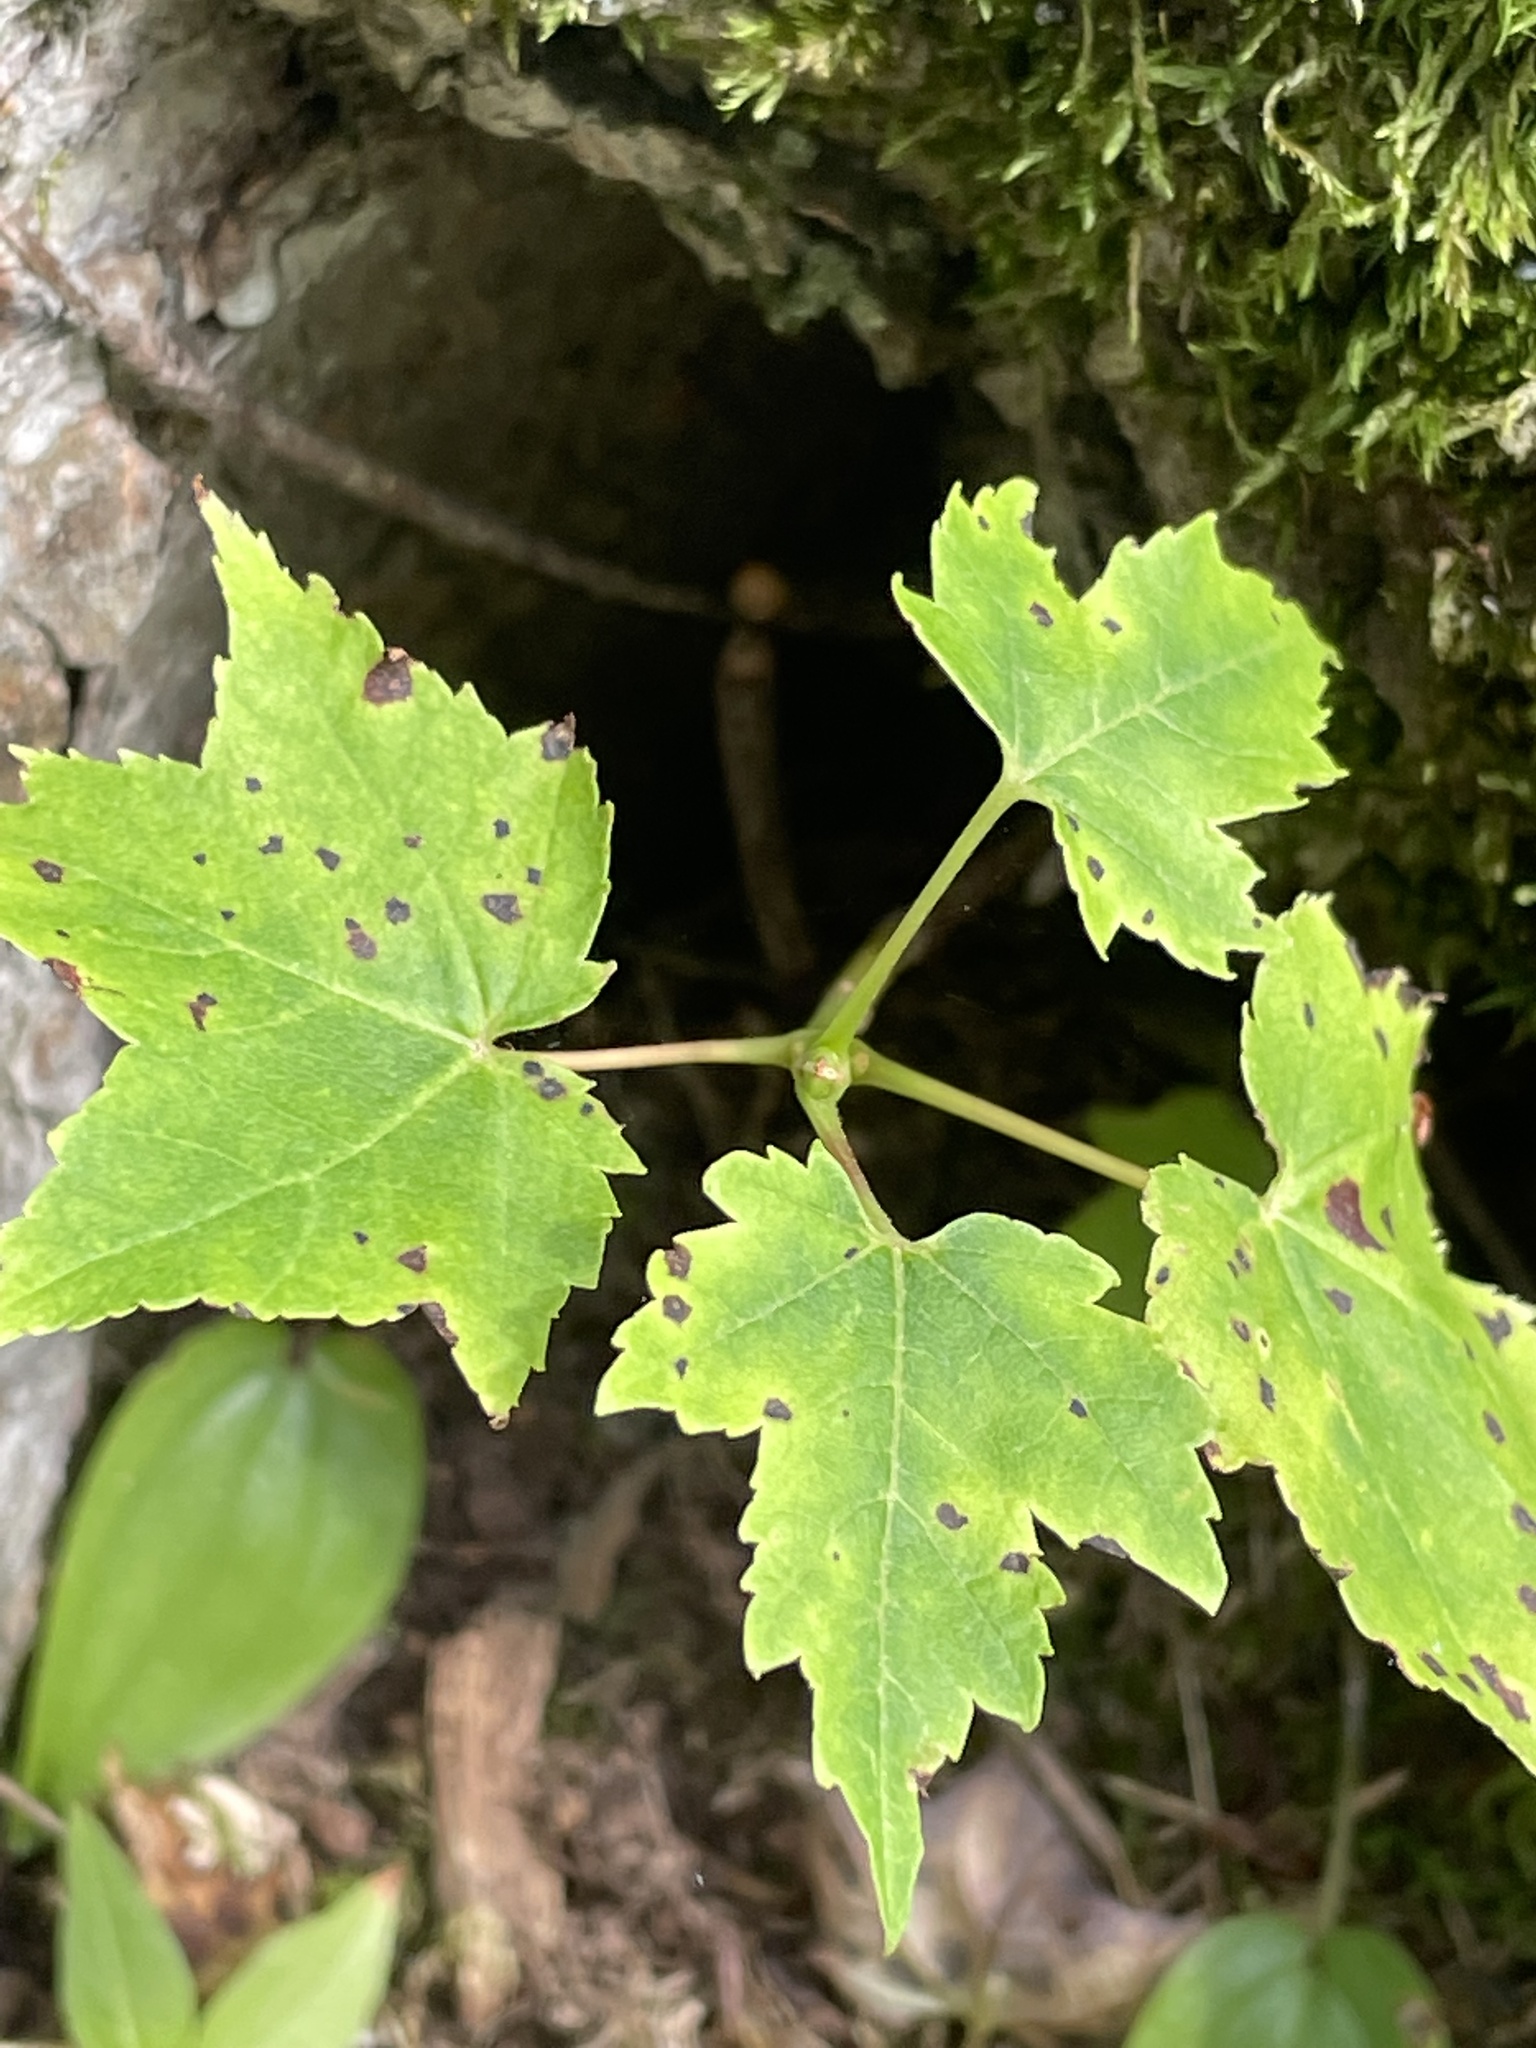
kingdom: Plantae
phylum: Tracheophyta
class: Magnoliopsida
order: Sapindales
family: Sapindaceae
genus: Acer
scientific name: Acer rubrum
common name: Red maple
